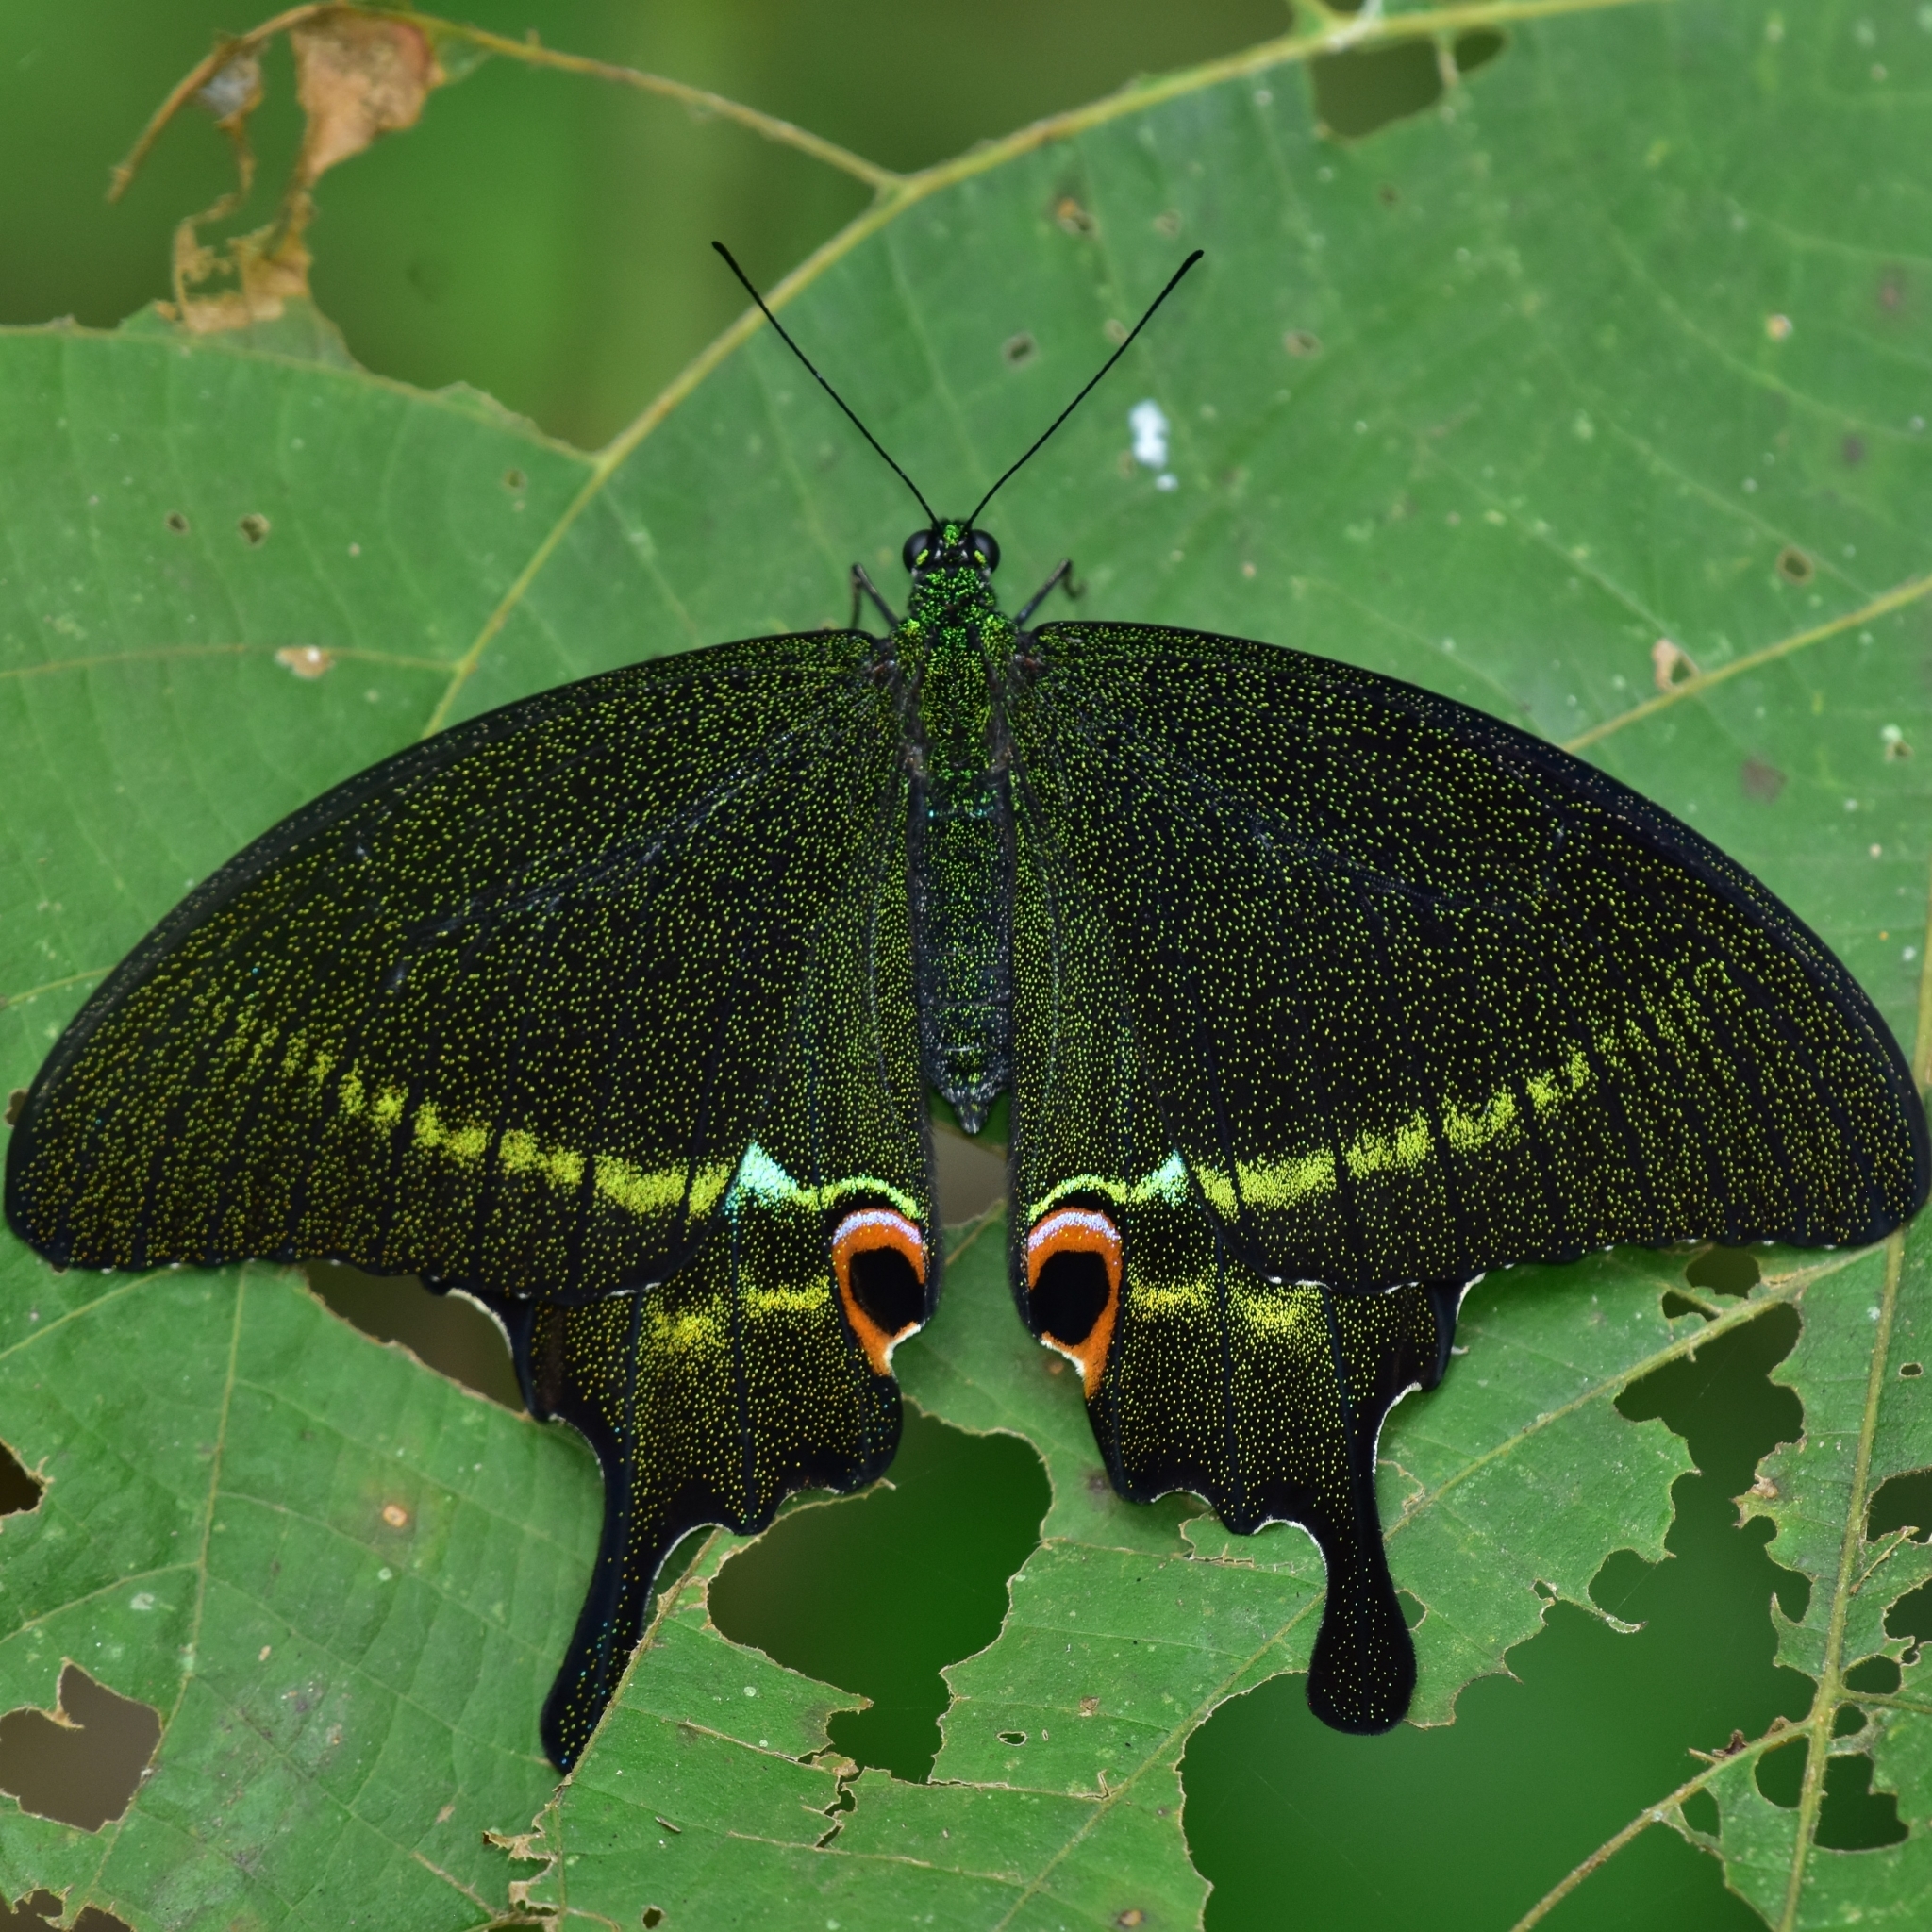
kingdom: Animalia
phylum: Arthropoda
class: Insecta
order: Lepidoptera
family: Papilionidae
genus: Papilio
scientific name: Papilio paris
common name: Paris peacock
